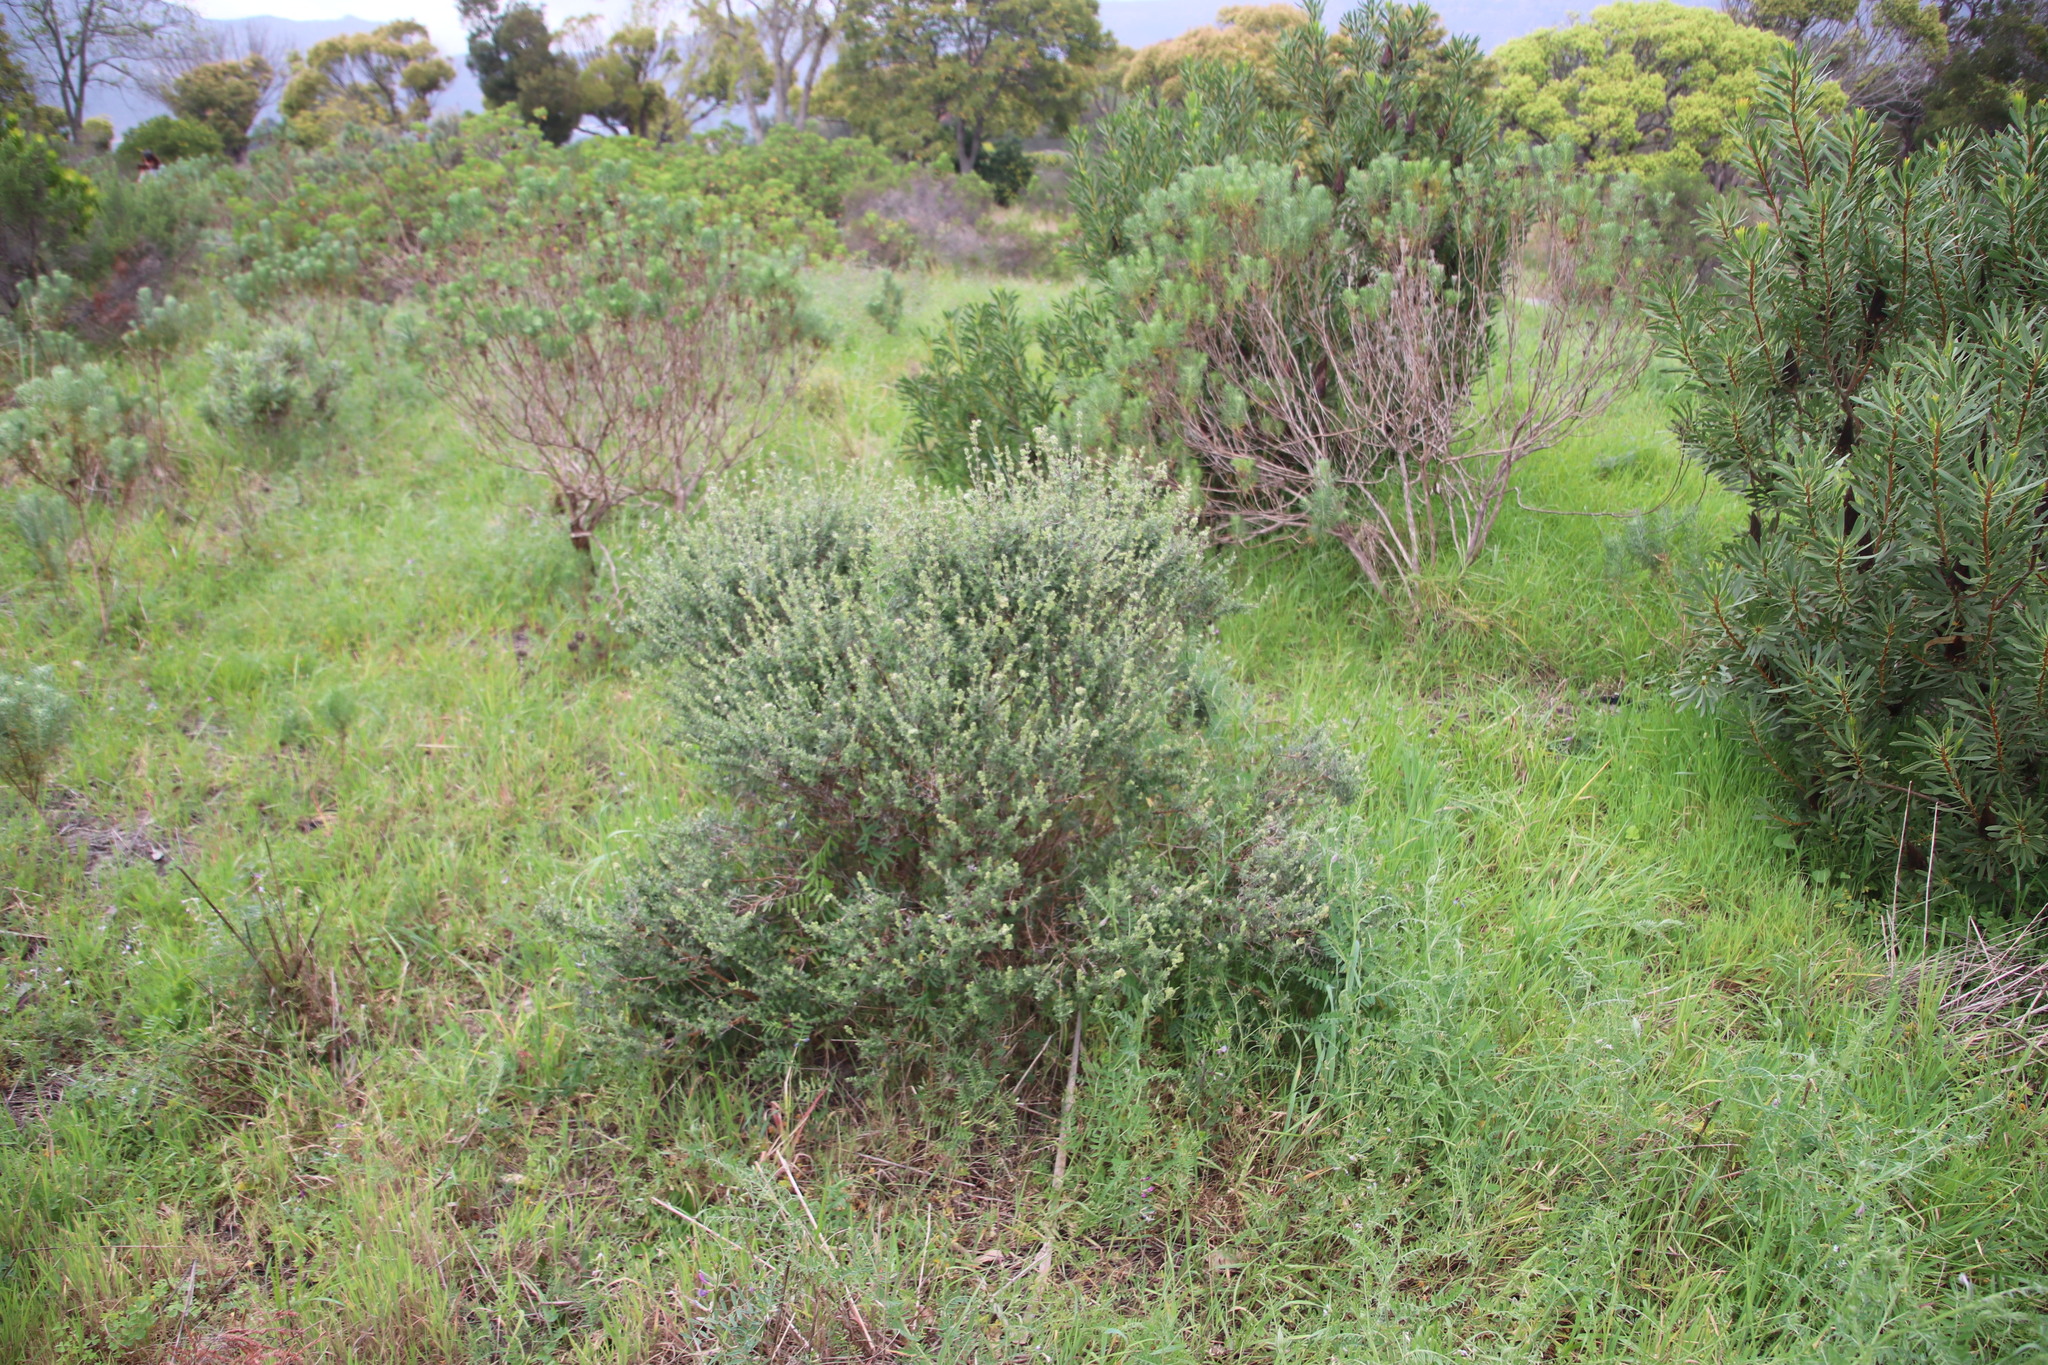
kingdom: Plantae
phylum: Tracheophyta
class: Magnoliopsida
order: Lamiales
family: Lamiaceae
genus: Salvia
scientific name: Salvia africana
